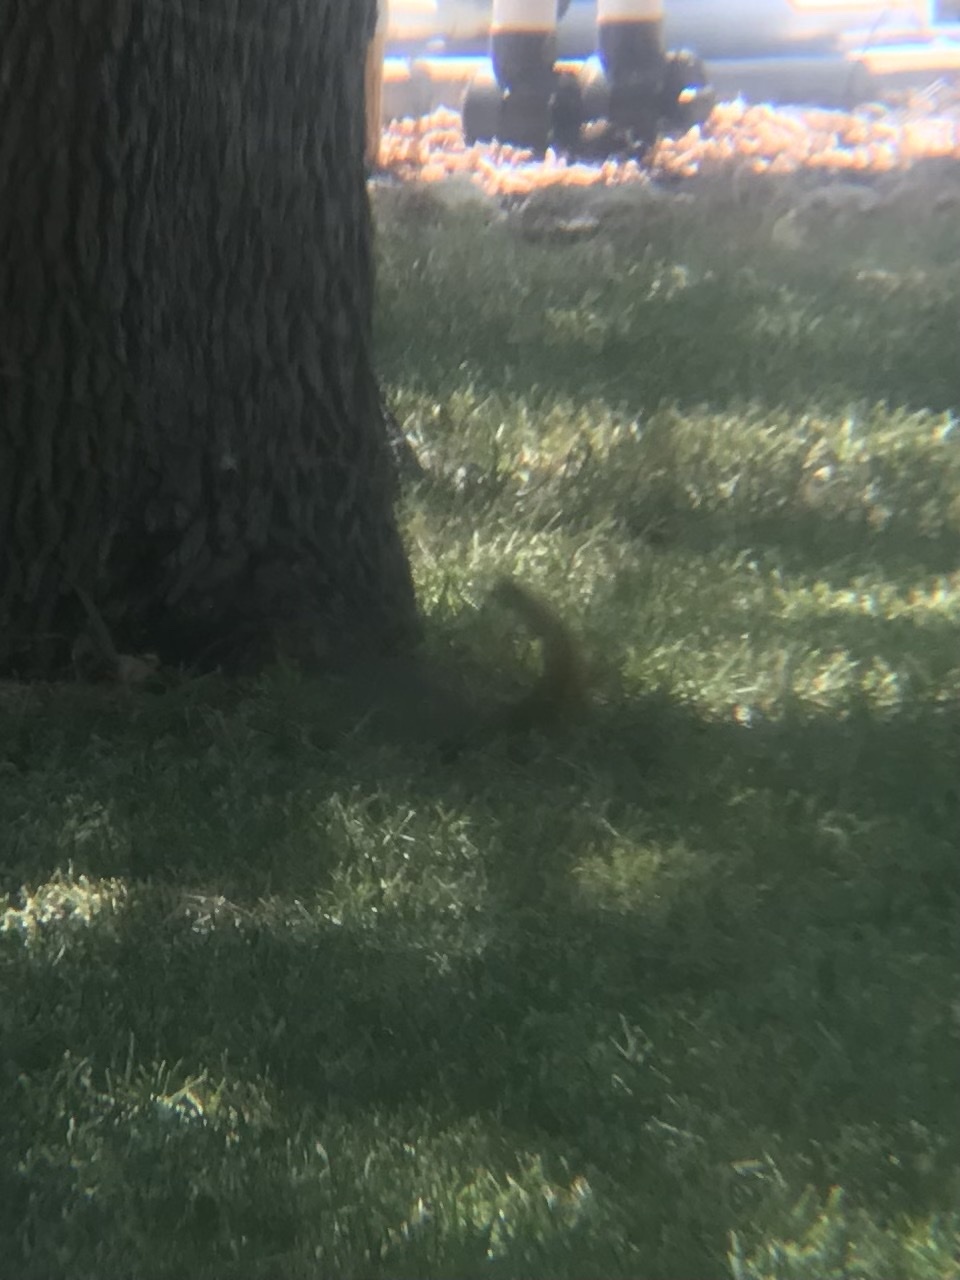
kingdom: Animalia
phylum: Chordata
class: Mammalia
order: Rodentia
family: Sciuridae
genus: Sciurus
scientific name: Sciurus niger
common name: Fox squirrel
